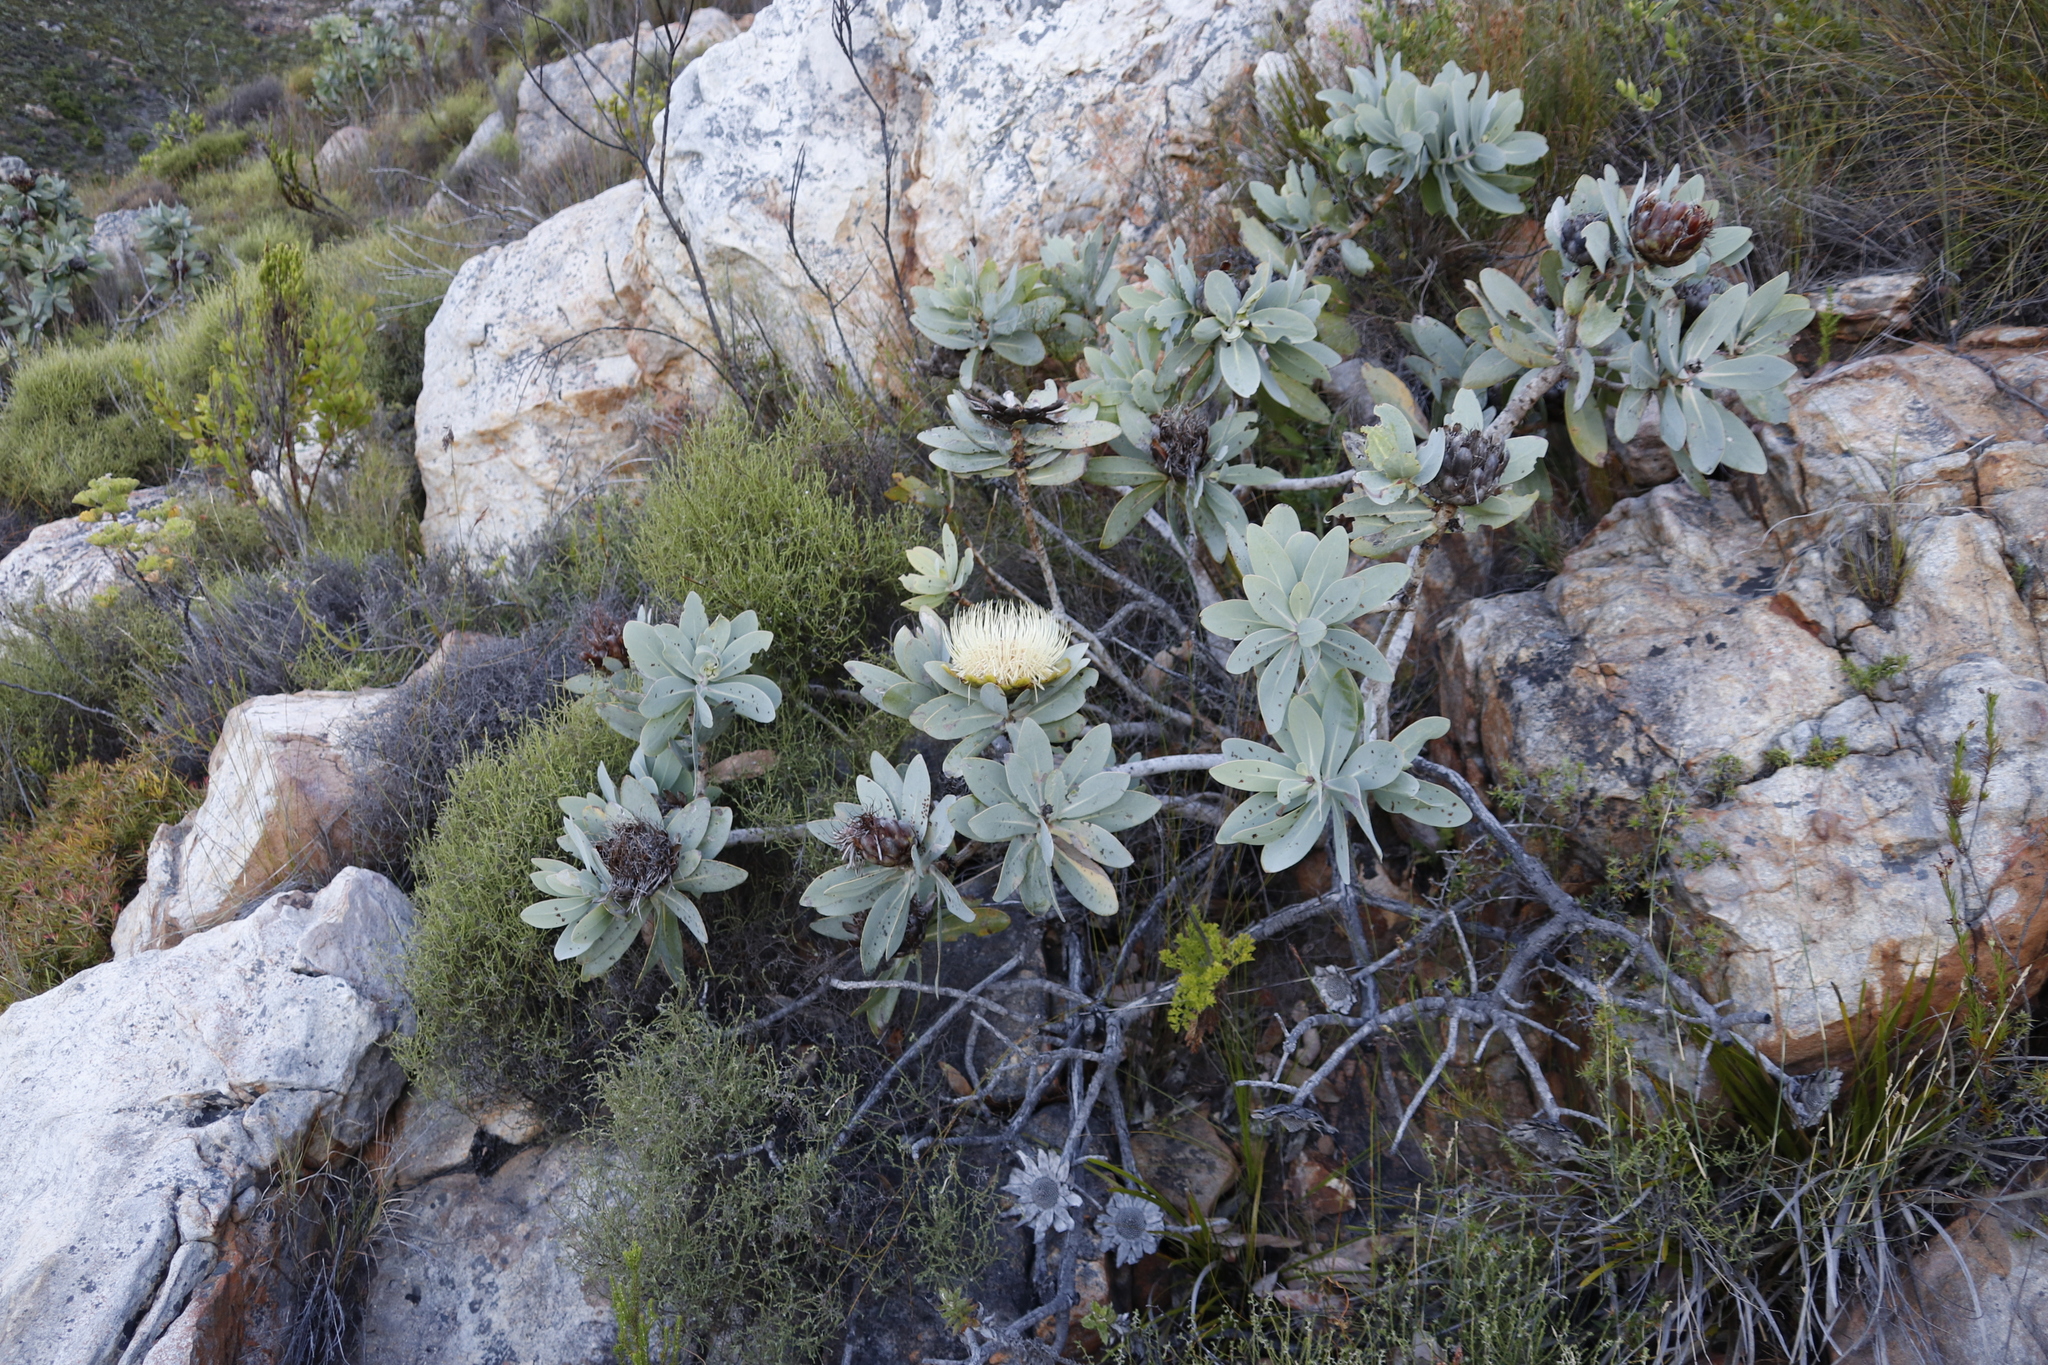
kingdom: Plantae
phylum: Tracheophyta
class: Magnoliopsida
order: Proteales
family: Proteaceae
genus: Protea
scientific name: Protea nitida
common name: Tree protea
